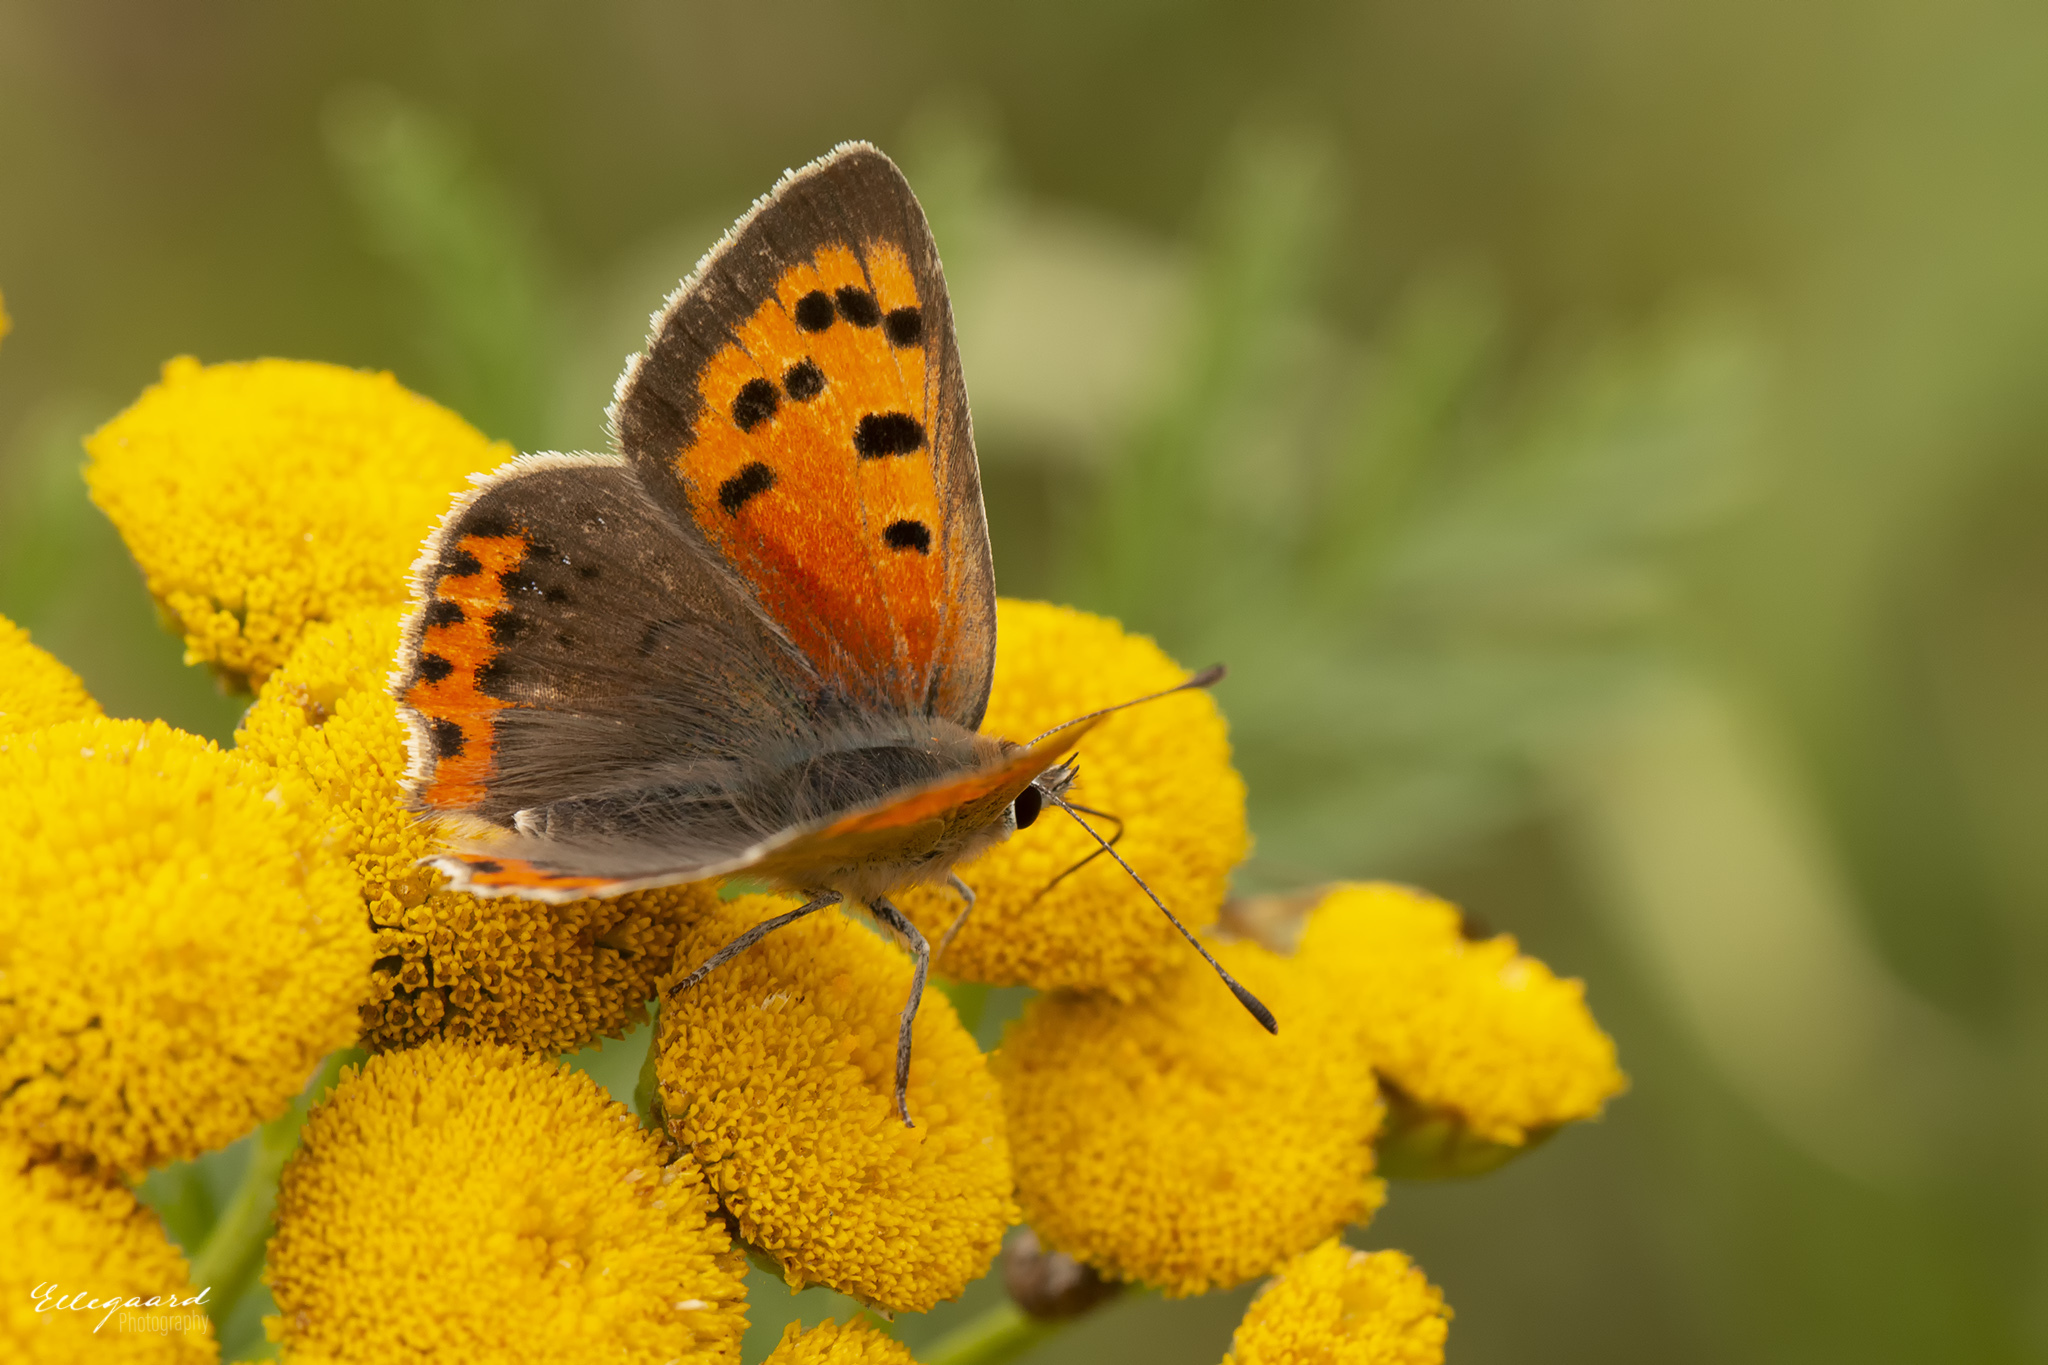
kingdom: Animalia
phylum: Arthropoda
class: Insecta
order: Lepidoptera
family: Lycaenidae
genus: Lycaena
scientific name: Lycaena phlaeas
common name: Small copper
